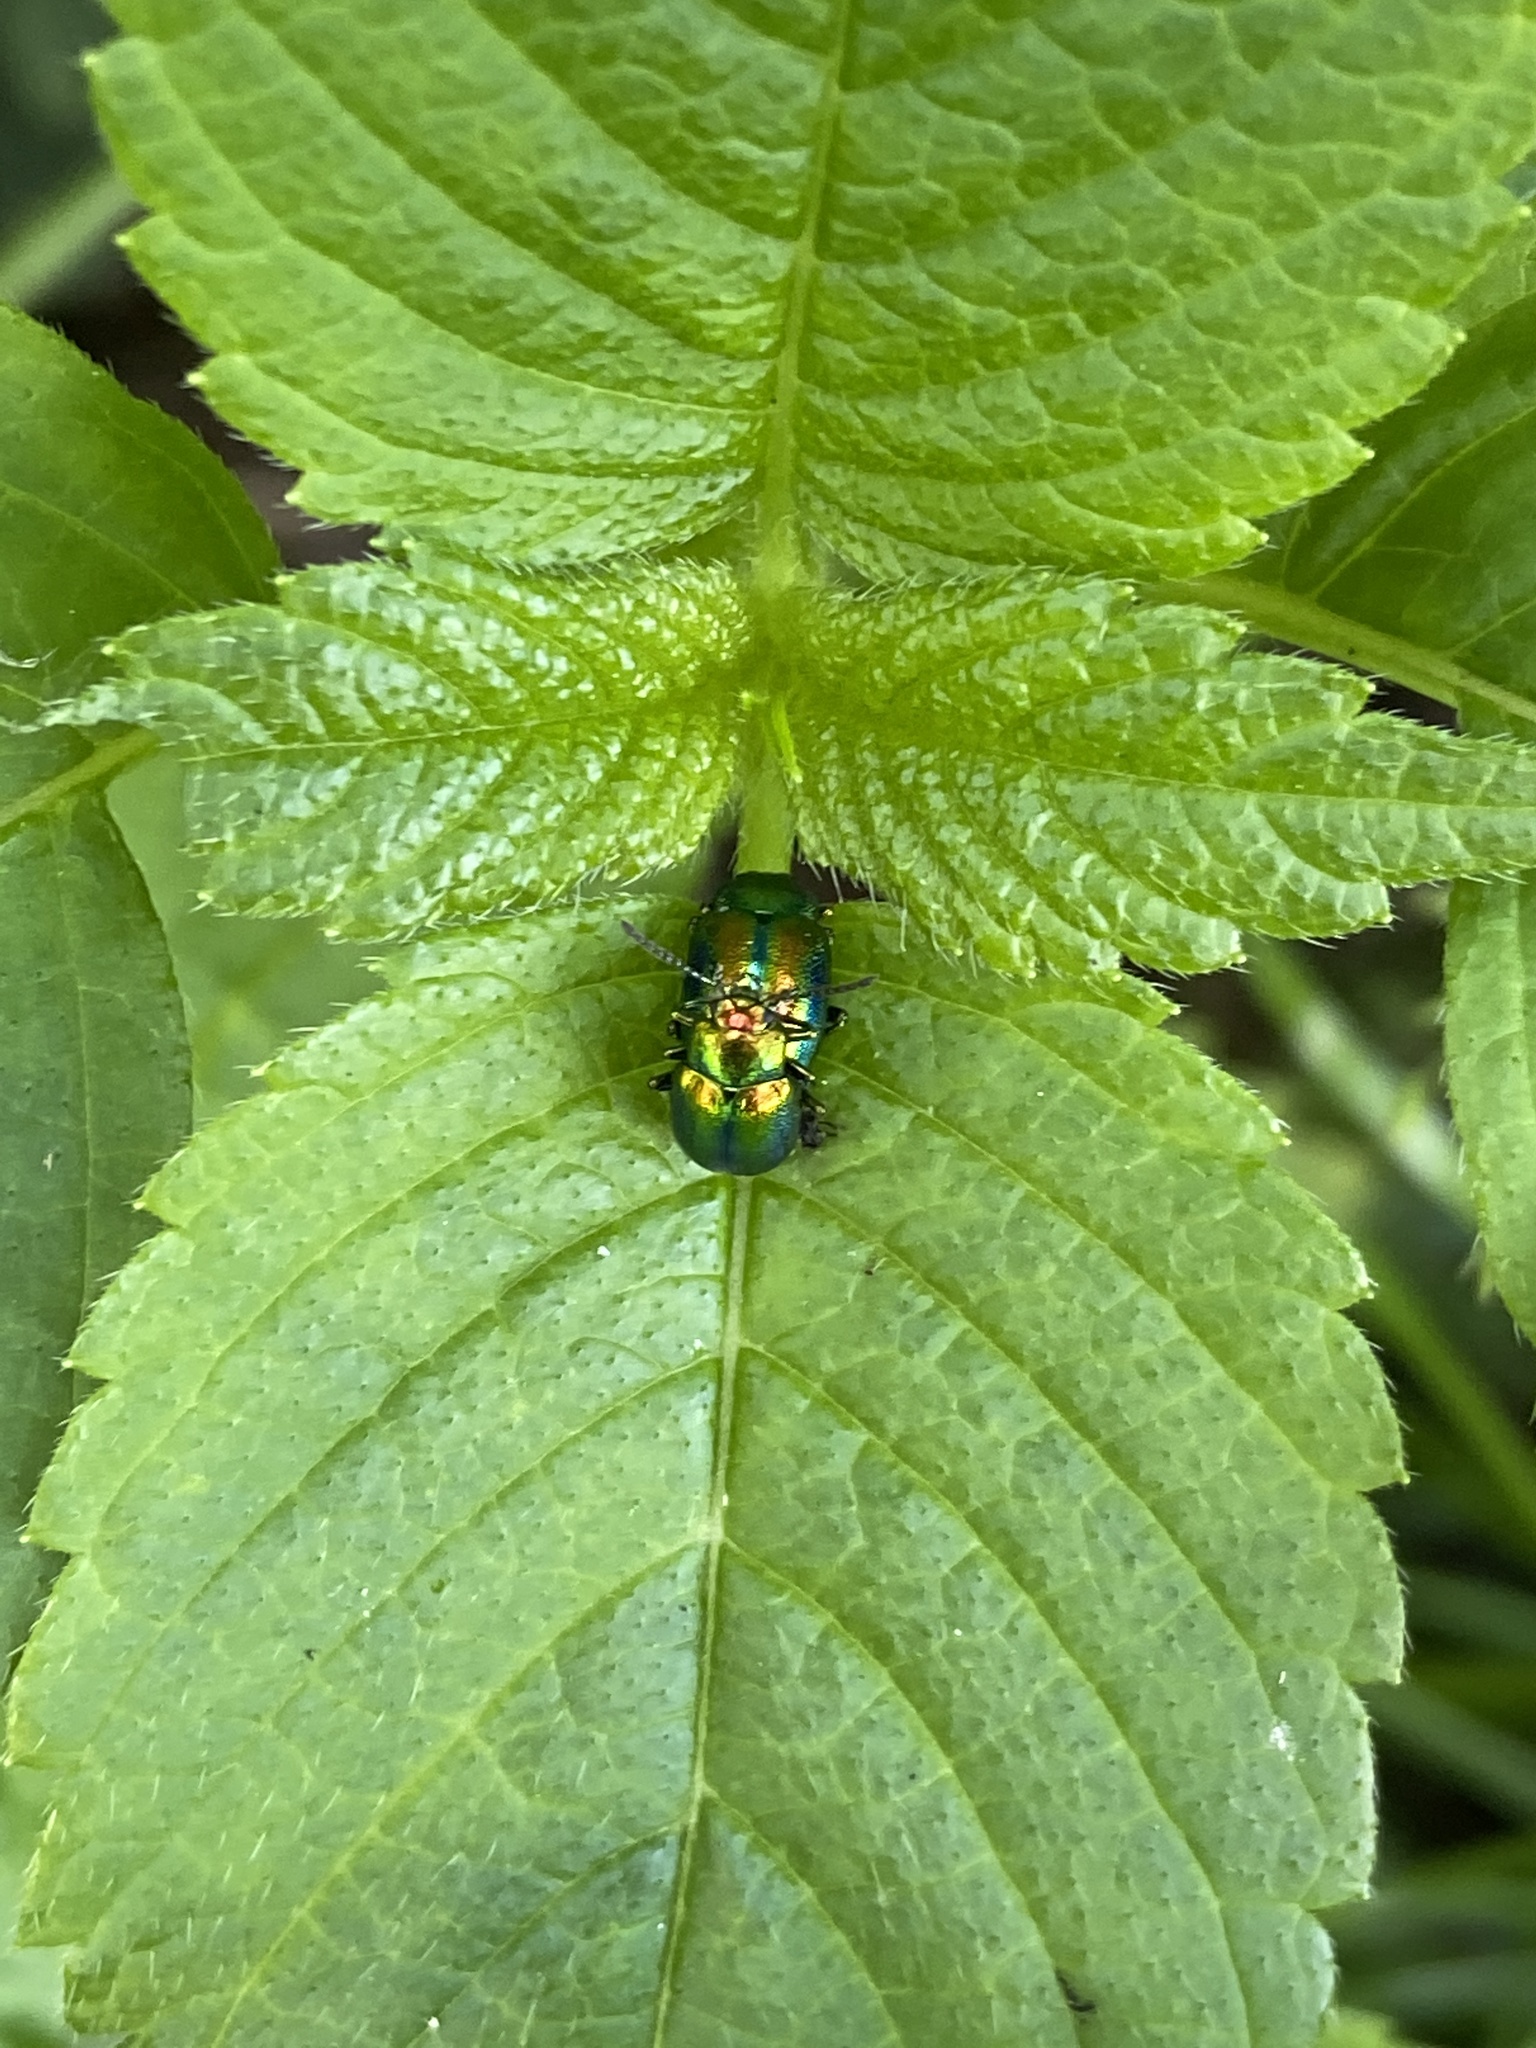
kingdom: Animalia
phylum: Arthropoda
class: Insecta
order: Coleoptera
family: Chrysomelidae
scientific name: Chrysomelidae
